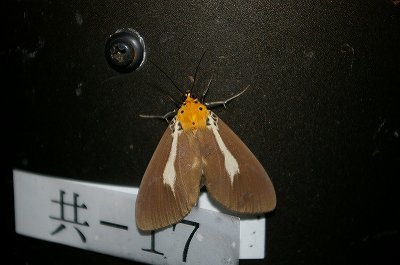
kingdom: Animalia
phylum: Arthropoda
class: Insecta
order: Lepidoptera
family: Erebidae
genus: Asota
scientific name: Asota heliconia
